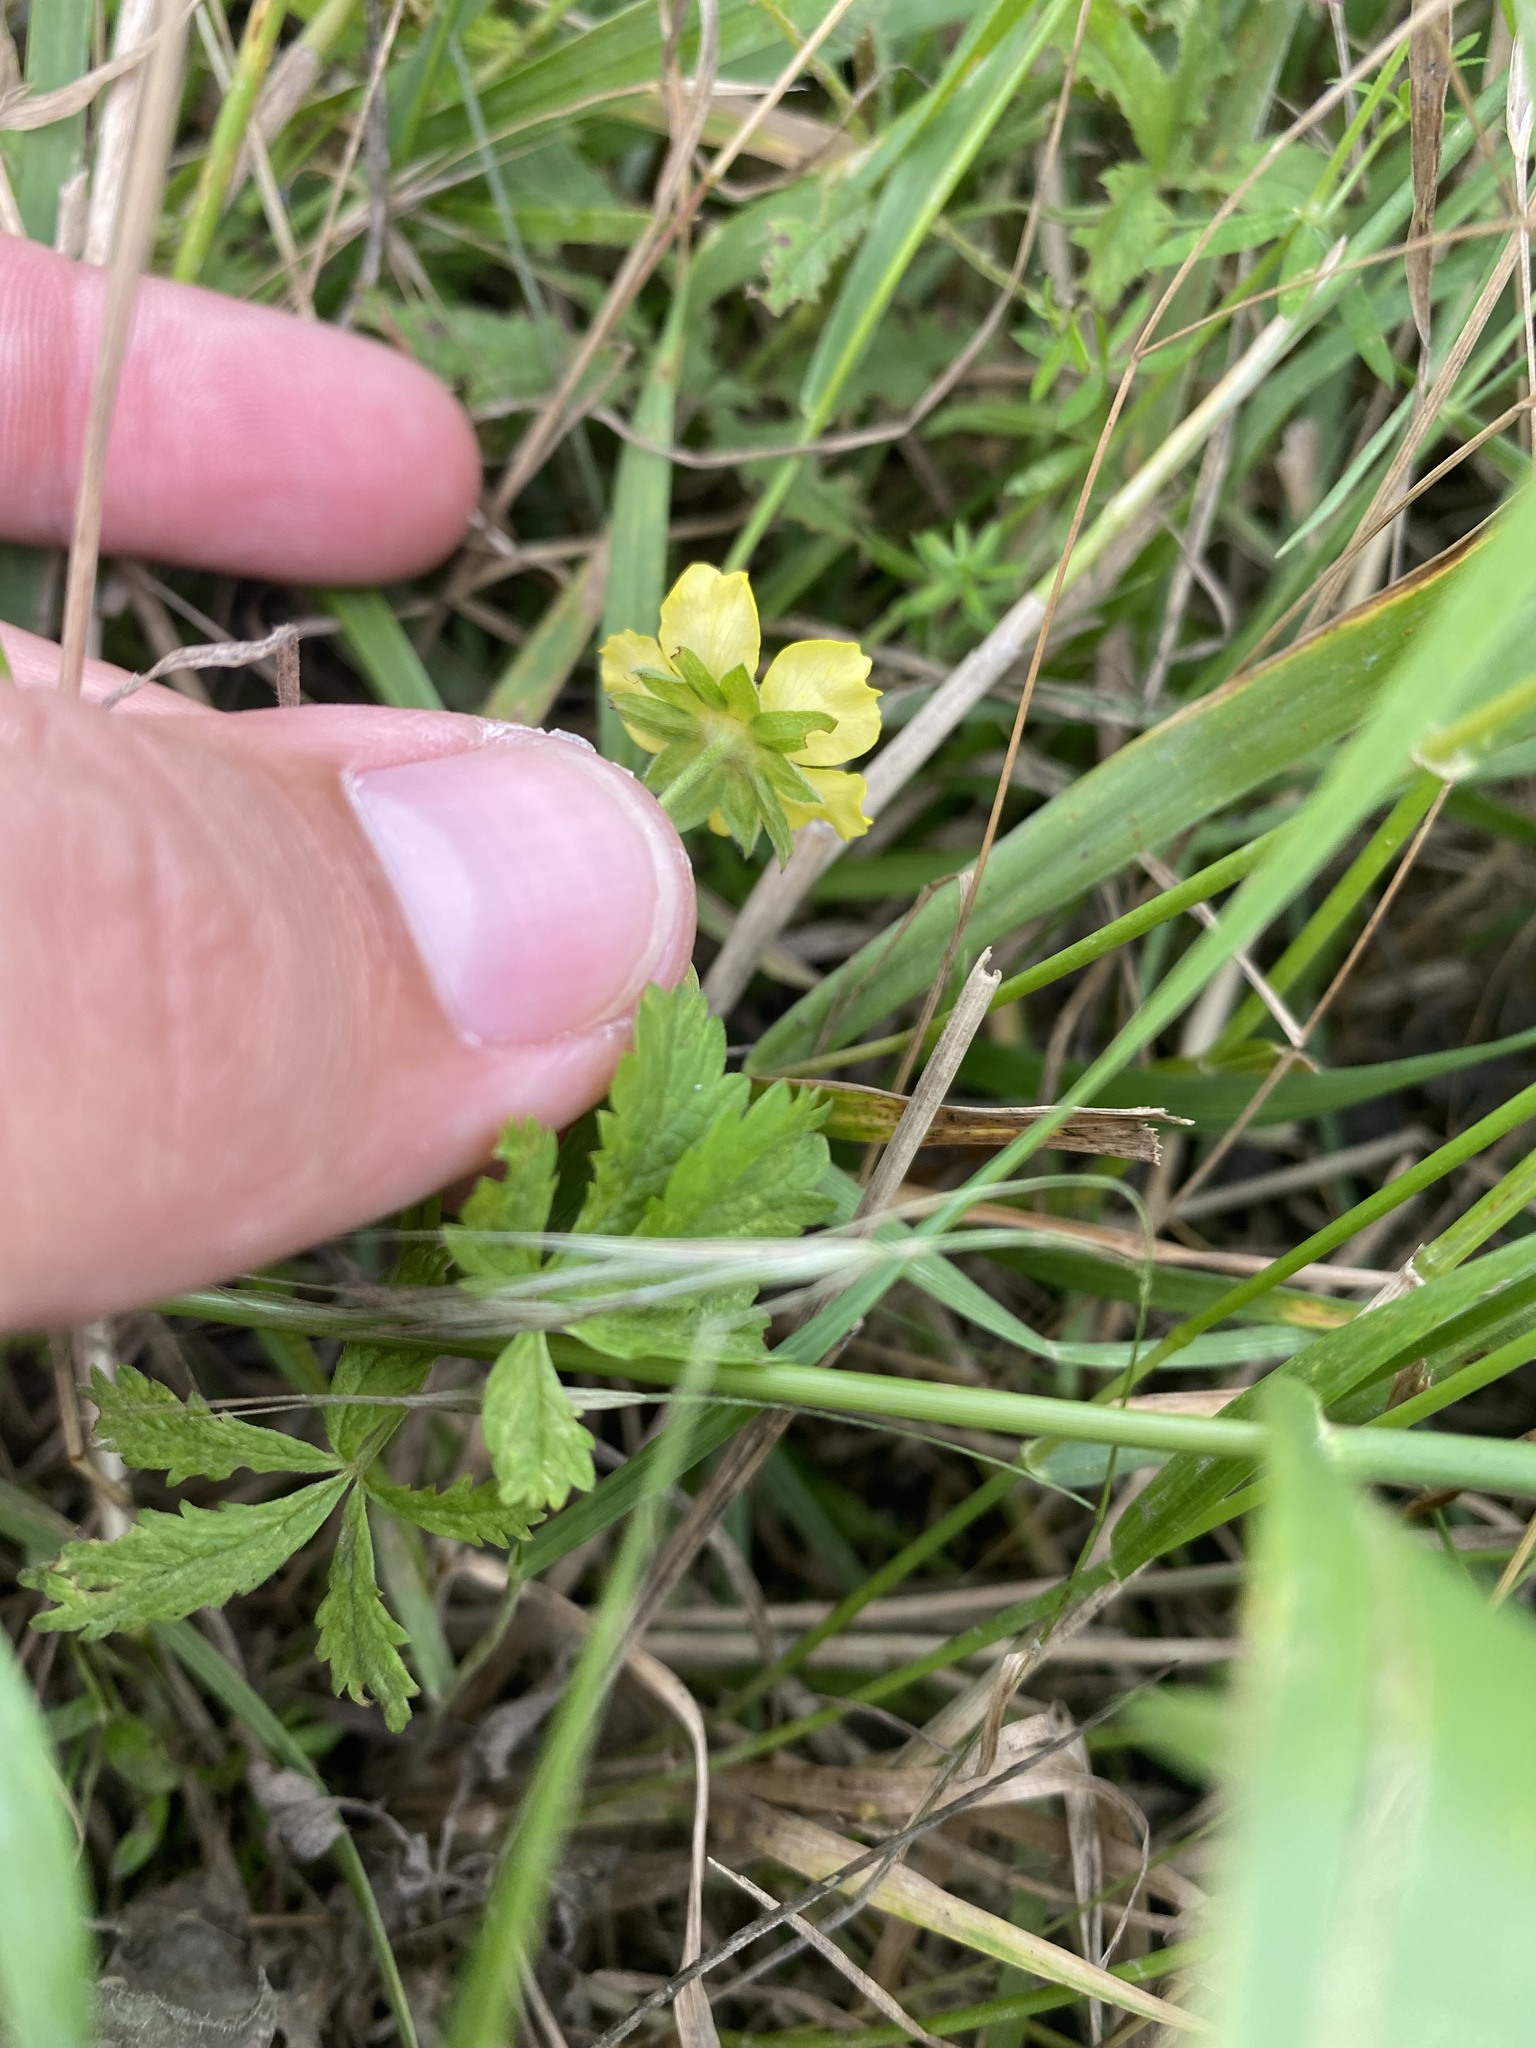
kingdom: Plantae
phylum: Tracheophyta
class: Magnoliopsida
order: Rosales
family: Rosaceae
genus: Potentilla
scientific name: Potentilla reptans
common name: Creeping cinquefoil
